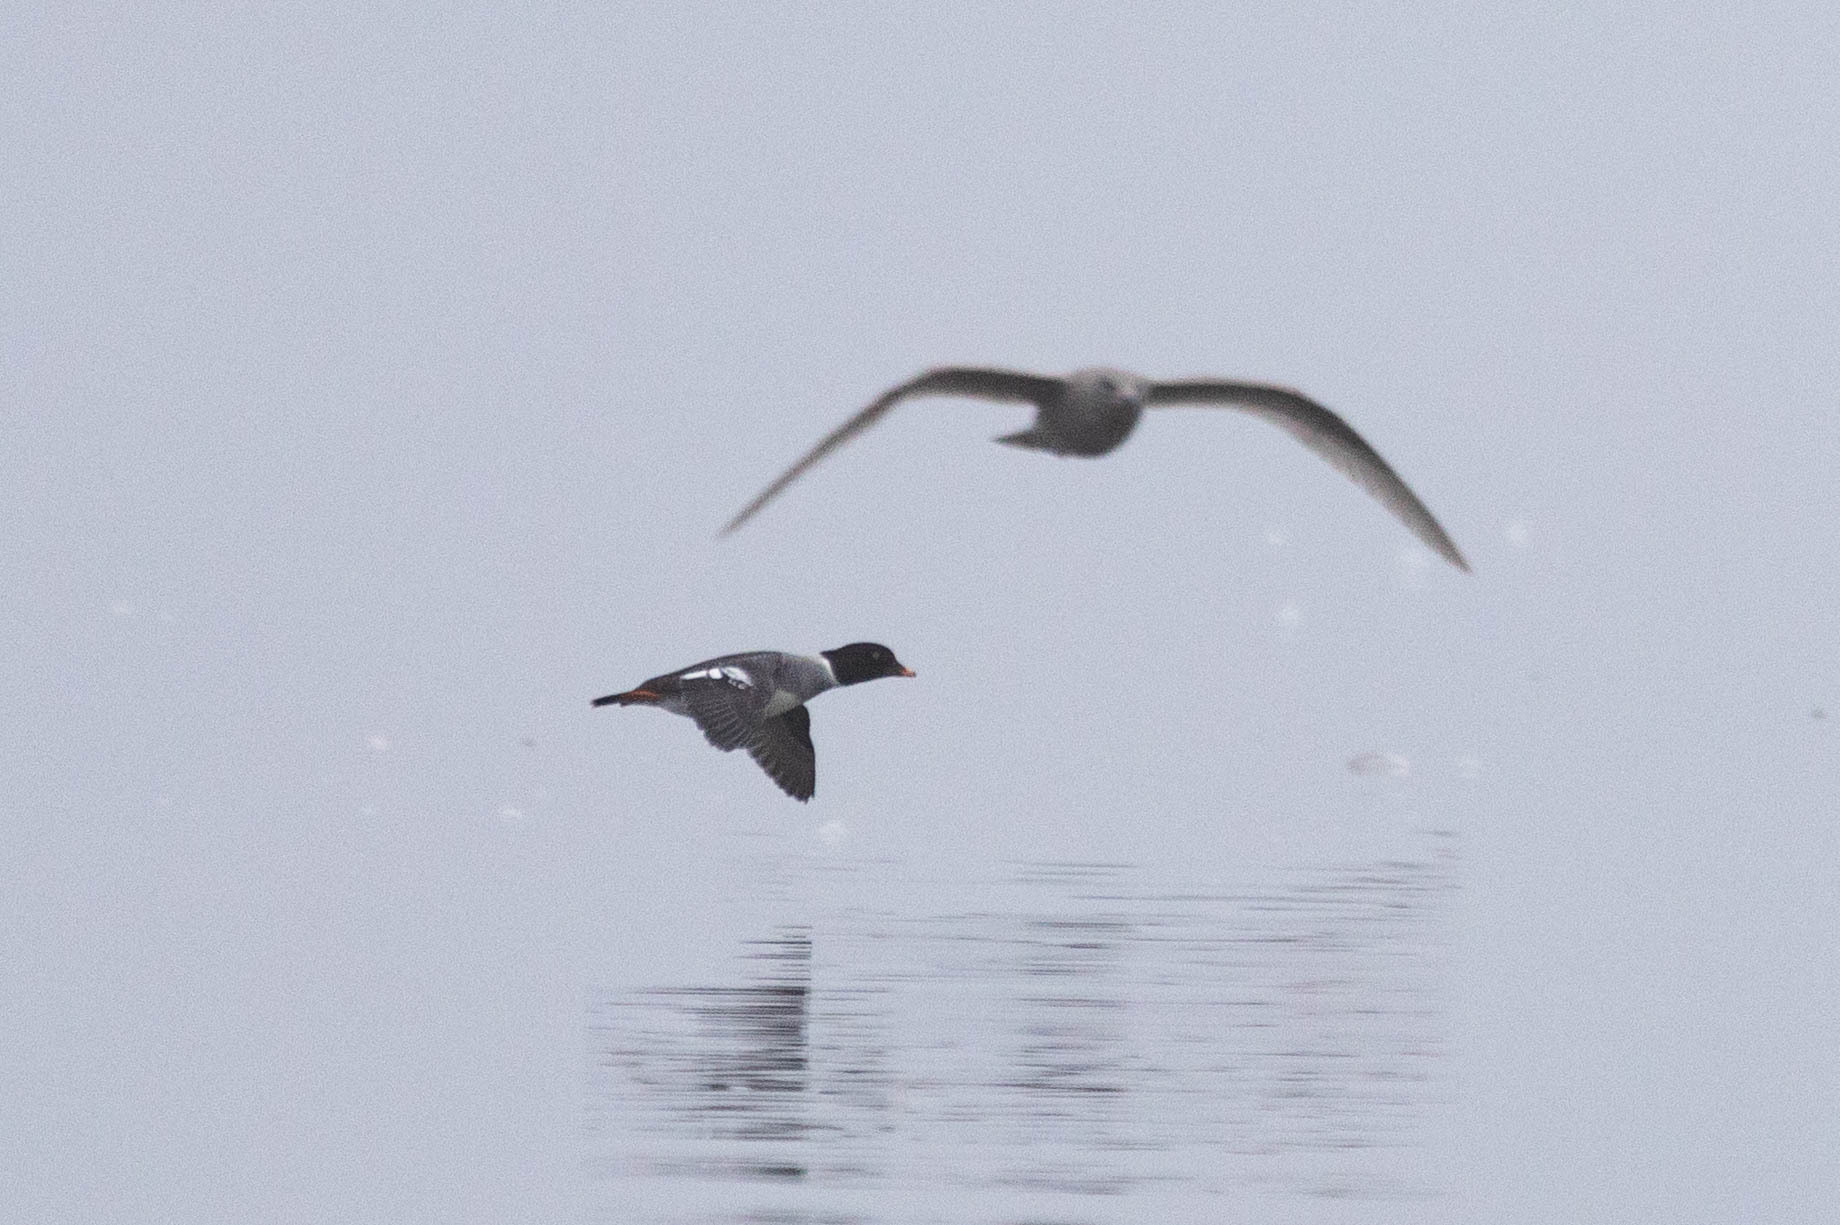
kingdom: Animalia
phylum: Chordata
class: Aves
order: Anseriformes
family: Anatidae
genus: Bucephala
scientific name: Bucephala clangula
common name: Common goldeneye
